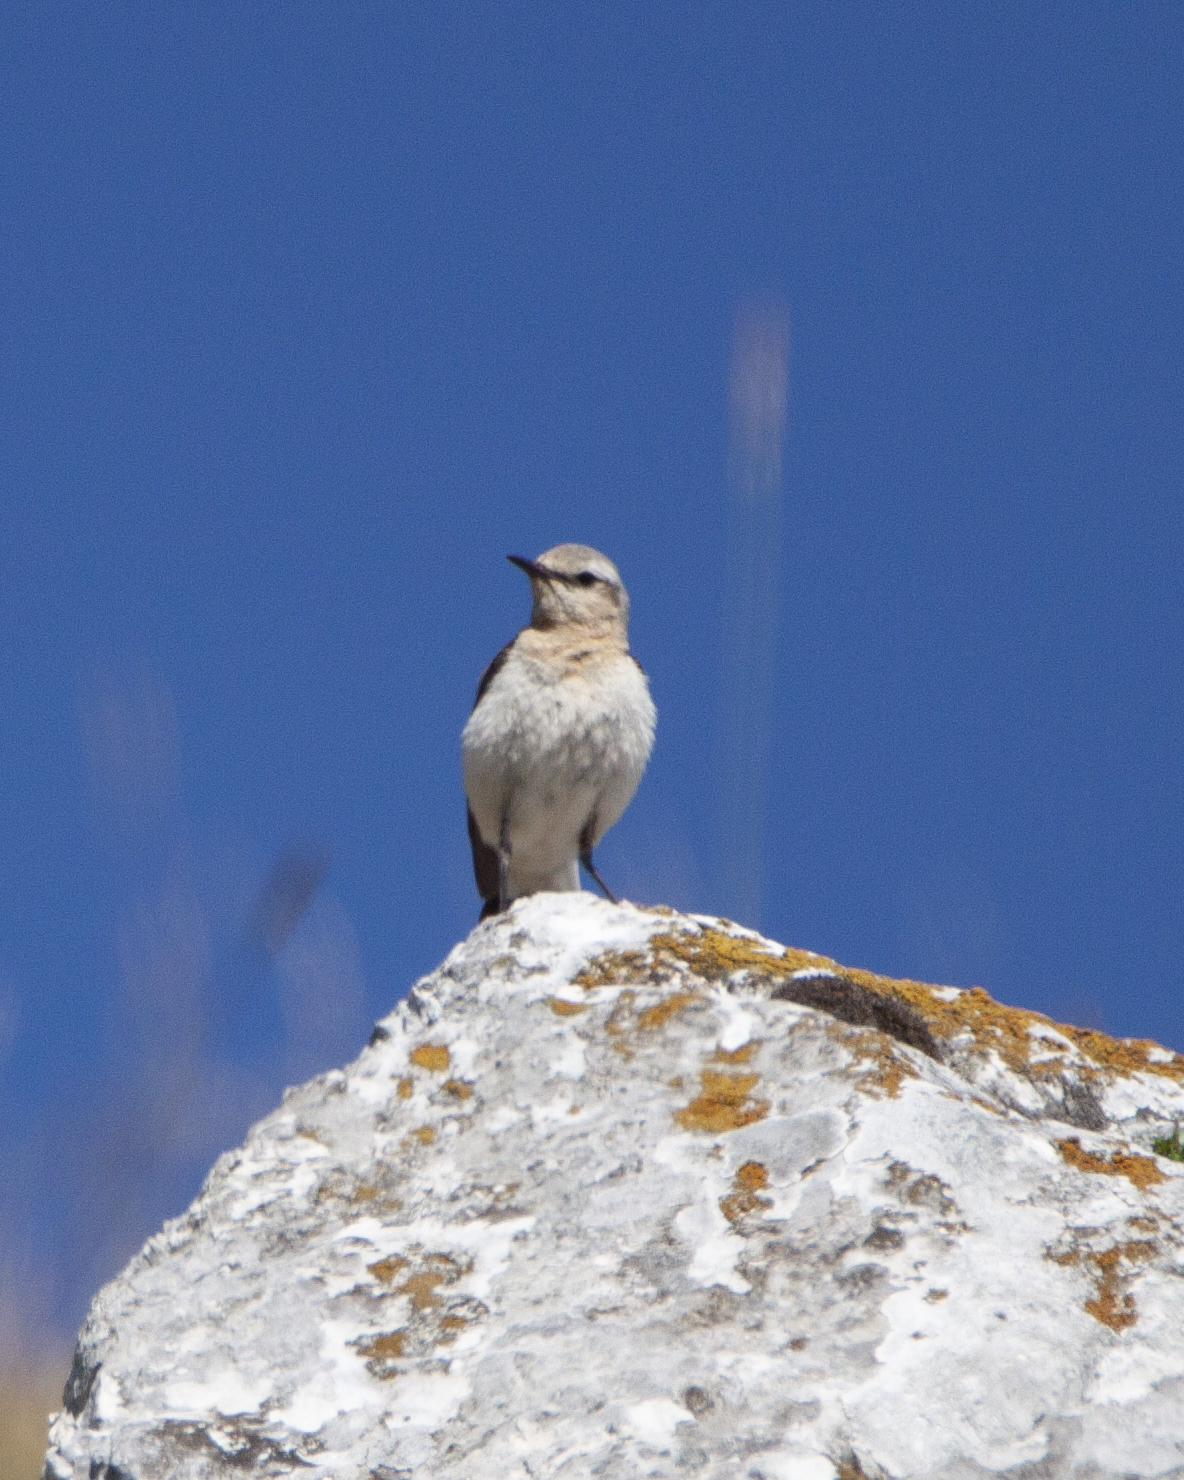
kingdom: Animalia
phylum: Chordata
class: Aves
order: Passeriformes
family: Muscicapidae
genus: Oenanthe
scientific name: Oenanthe oenanthe
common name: Northern wheatear
